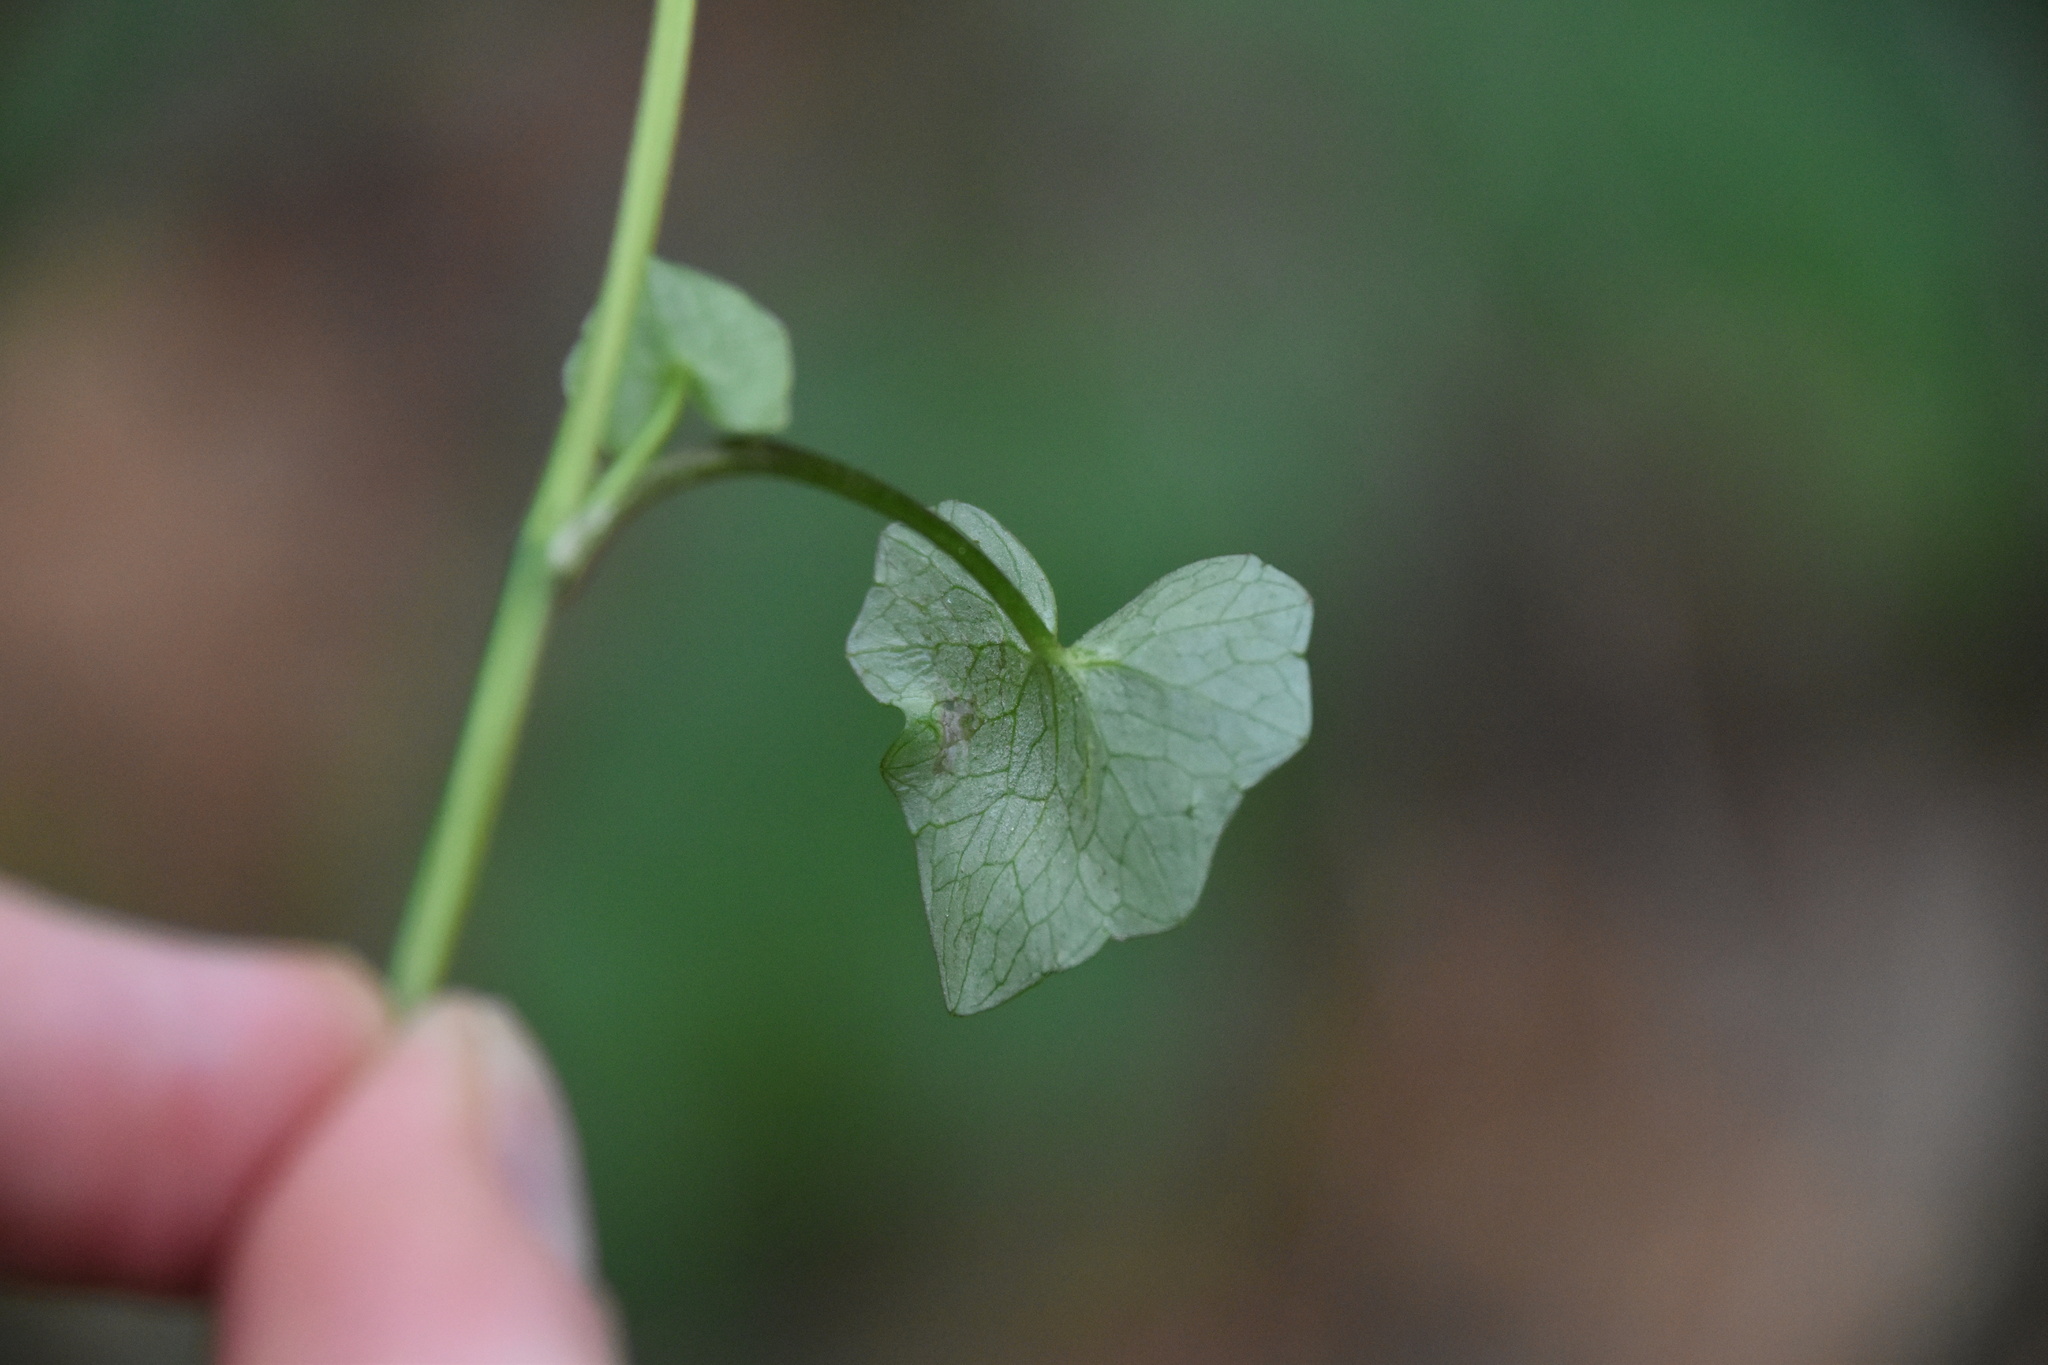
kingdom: Plantae
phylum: Tracheophyta
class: Magnoliopsida
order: Ranunculales
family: Ranunculaceae
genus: Ficaria
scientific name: Ficaria verna
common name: Lesser celandine
